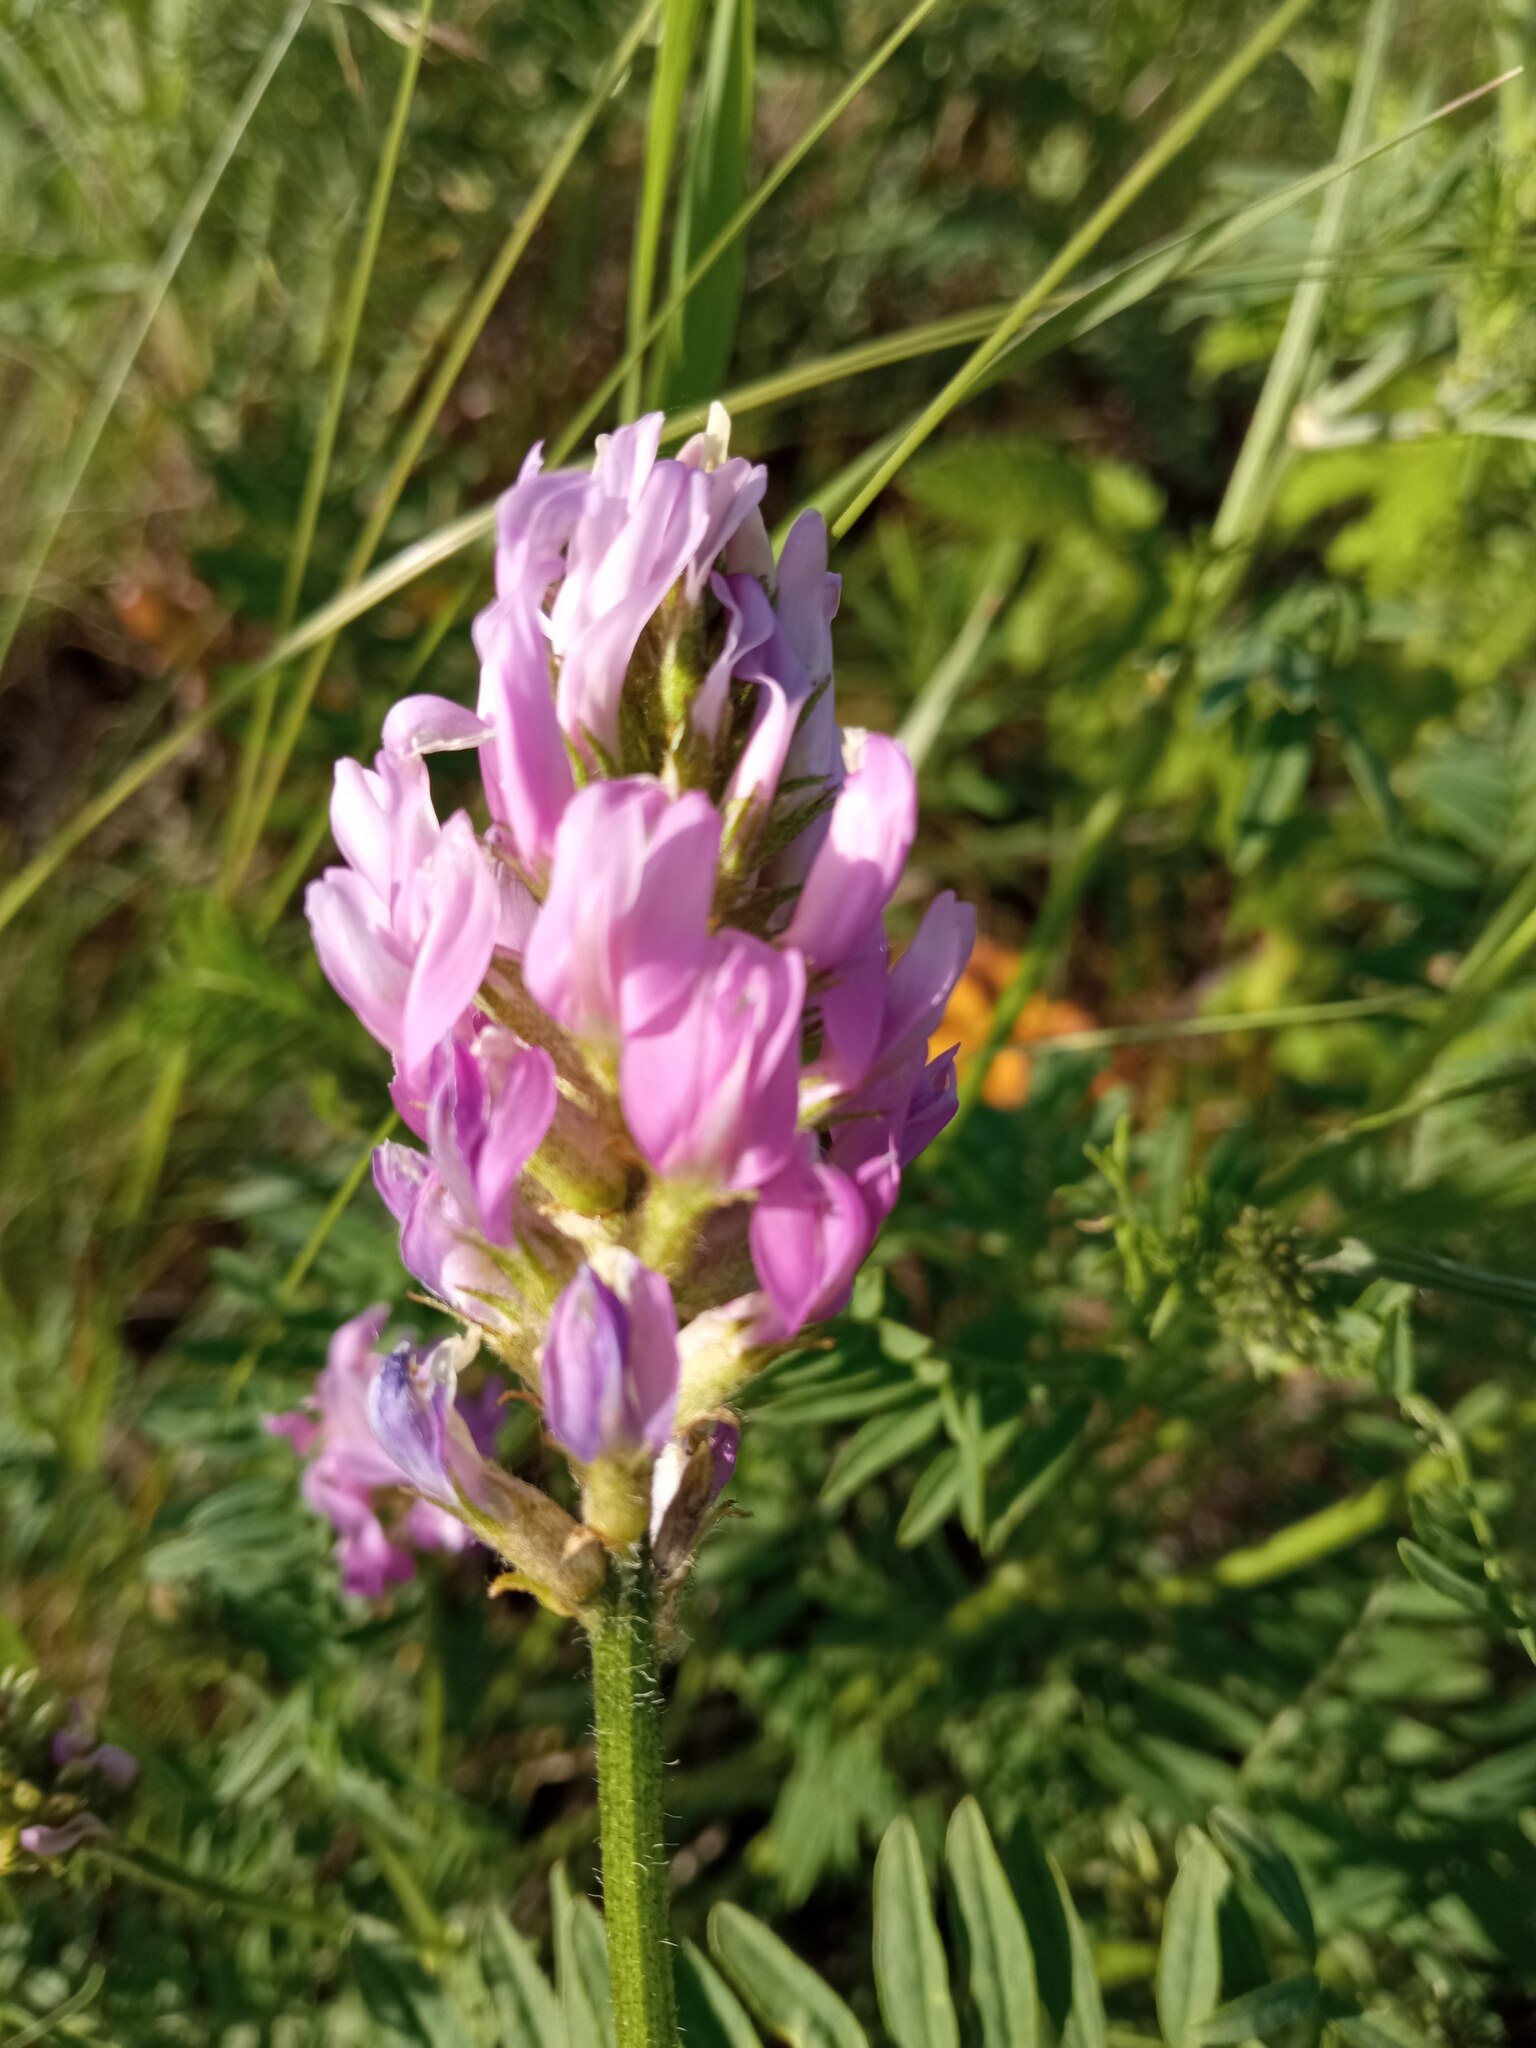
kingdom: Plantae
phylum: Tracheophyta
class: Magnoliopsida
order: Fabales
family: Fabaceae
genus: Astragalus
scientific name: Astragalus onobrychis
